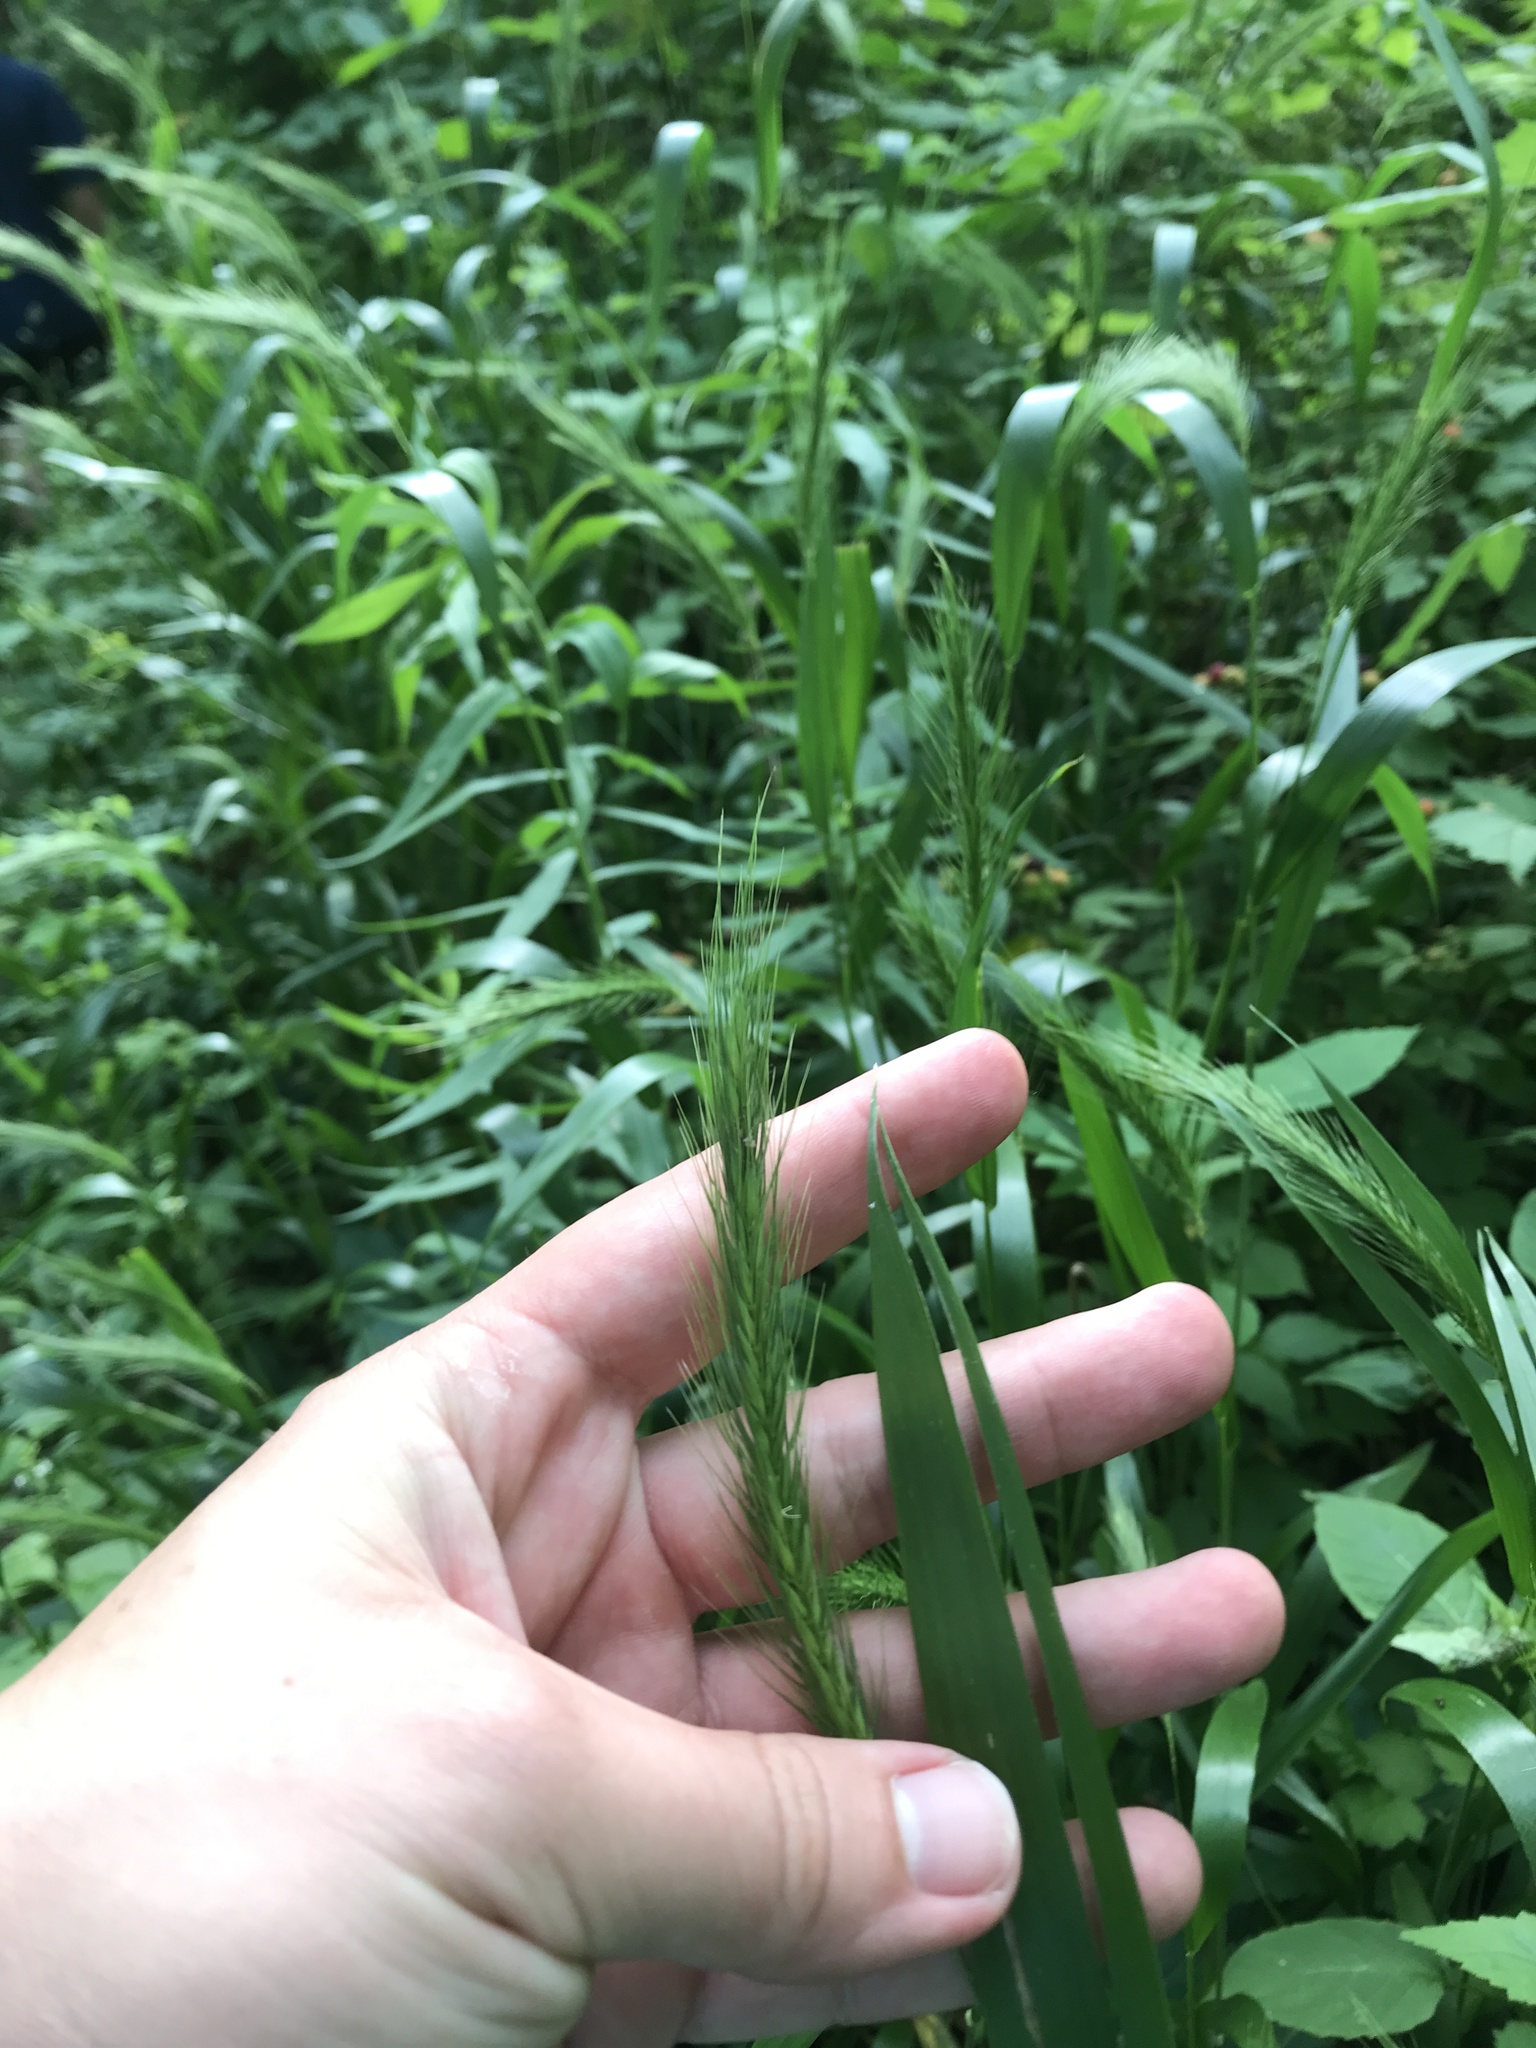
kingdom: Plantae
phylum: Tracheophyta
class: Liliopsida
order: Poales
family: Poaceae
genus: Elymus
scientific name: Elymus virginicus
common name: Common eastern wildrye
